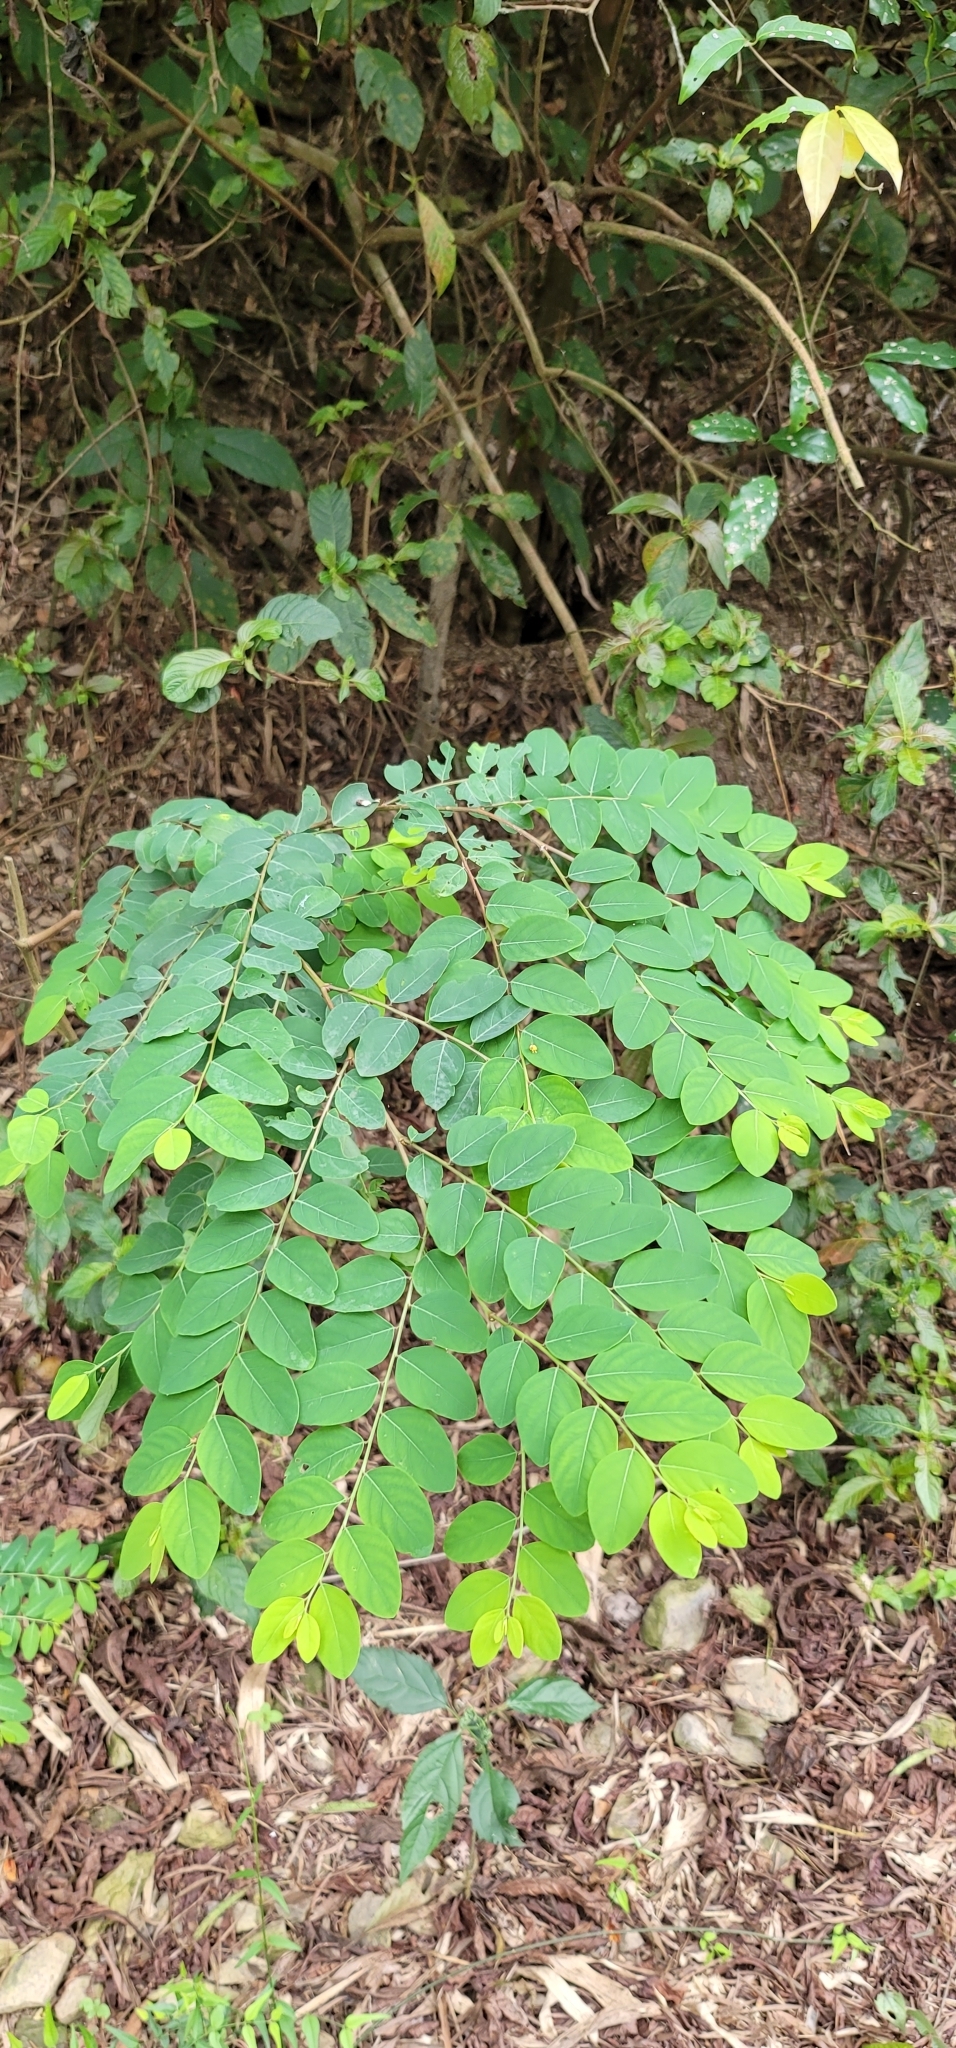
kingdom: Plantae
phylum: Tracheophyta
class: Magnoliopsida
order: Malpighiales
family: Phyllanthaceae
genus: Breynia
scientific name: Breynia vitis-idaea
